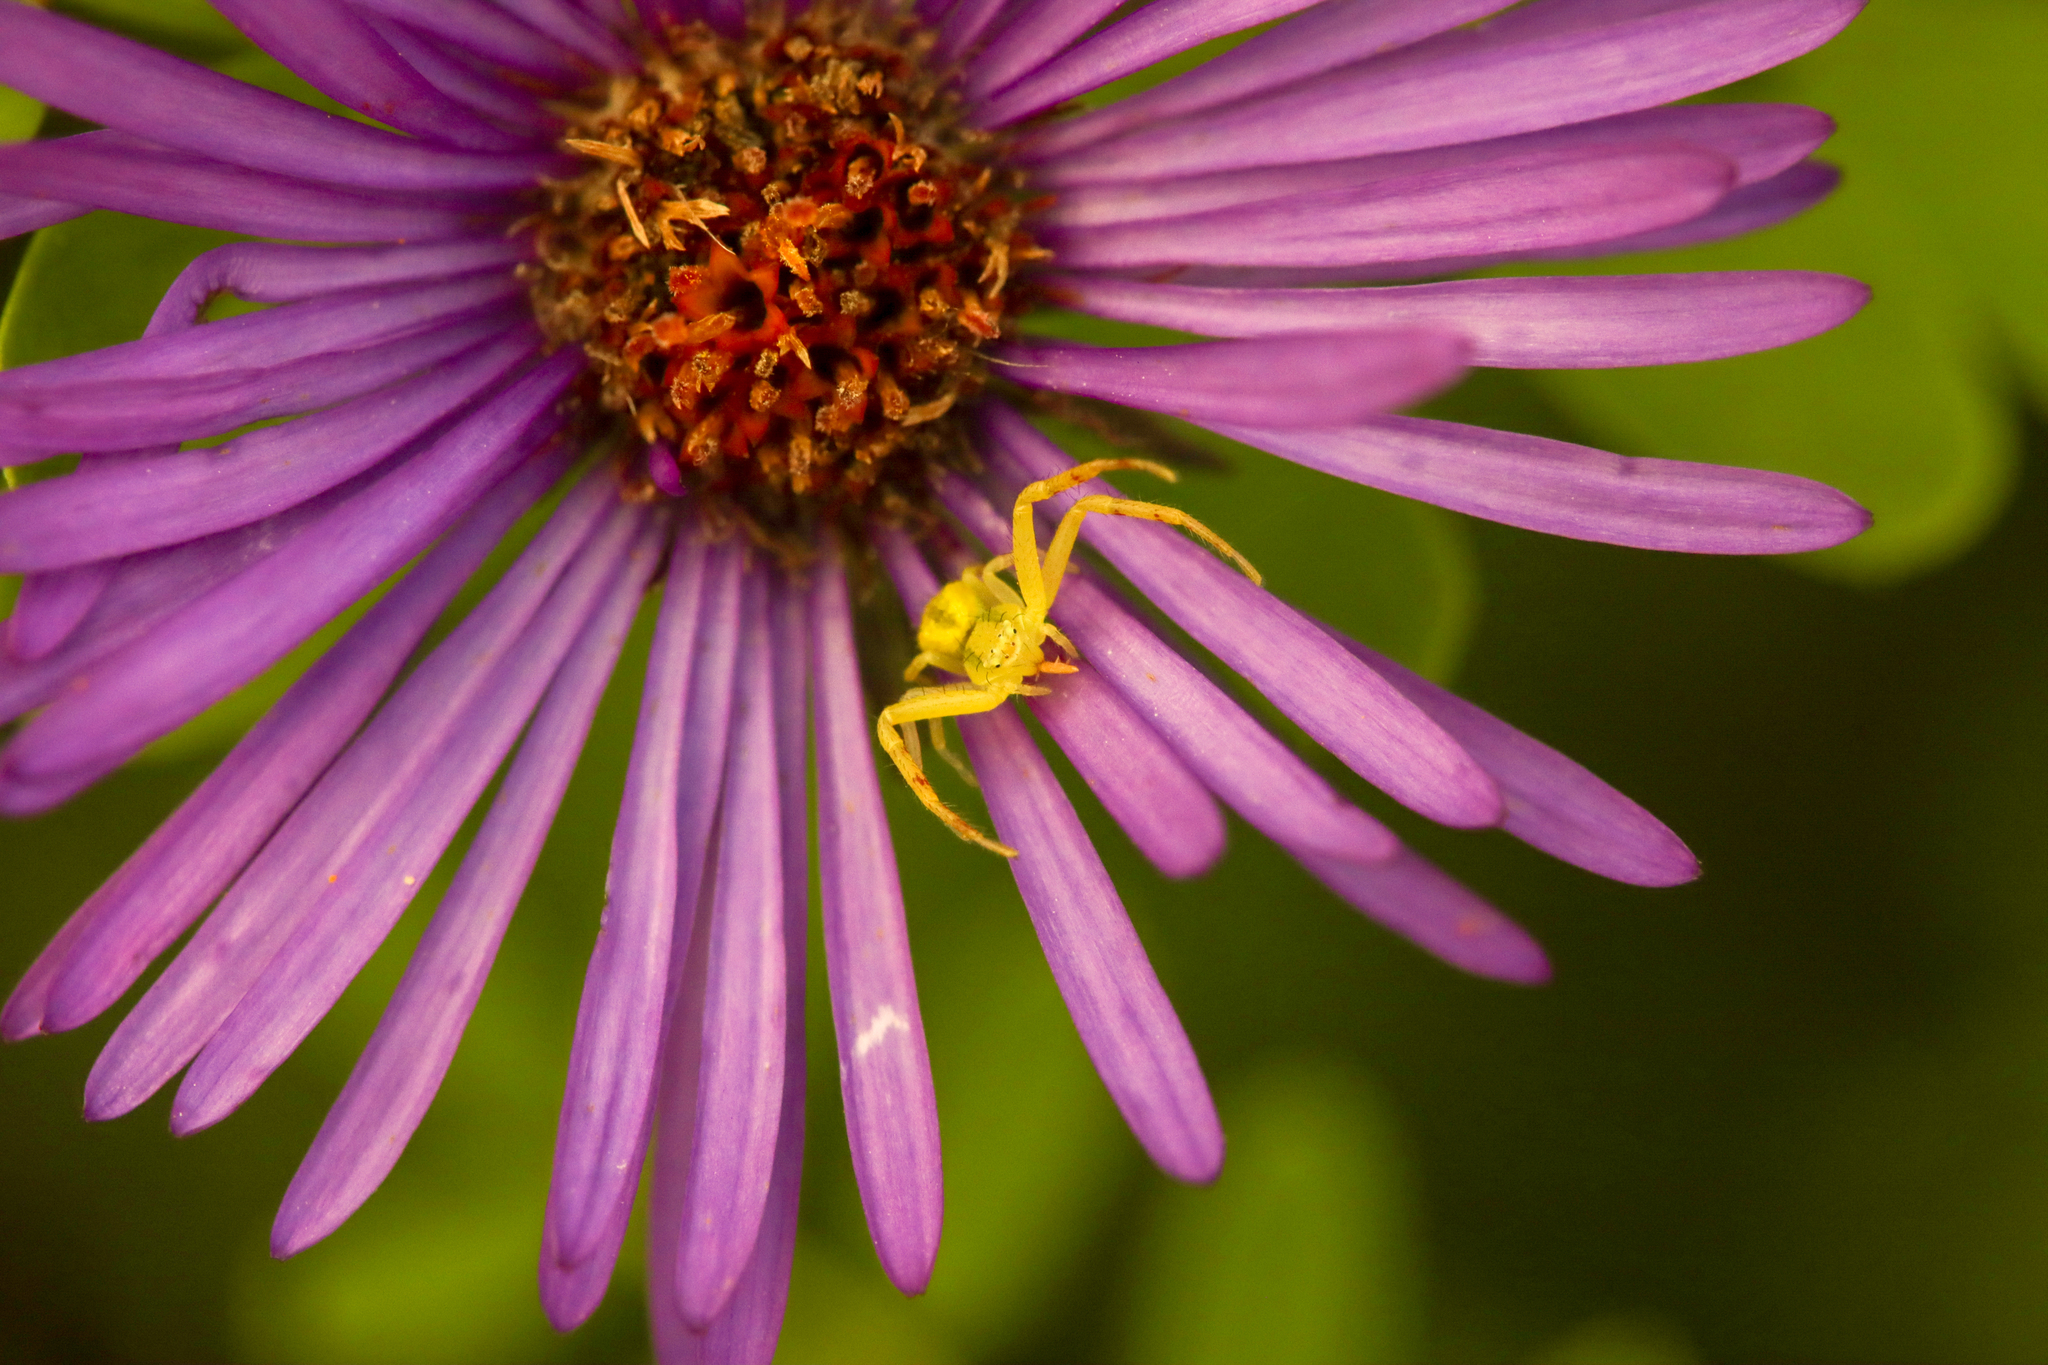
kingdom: Animalia
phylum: Arthropoda
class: Arachnida
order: Araneae
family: Thomisidae
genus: Mecaphesa
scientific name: Mecaphesa asperata
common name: Crab spiders
